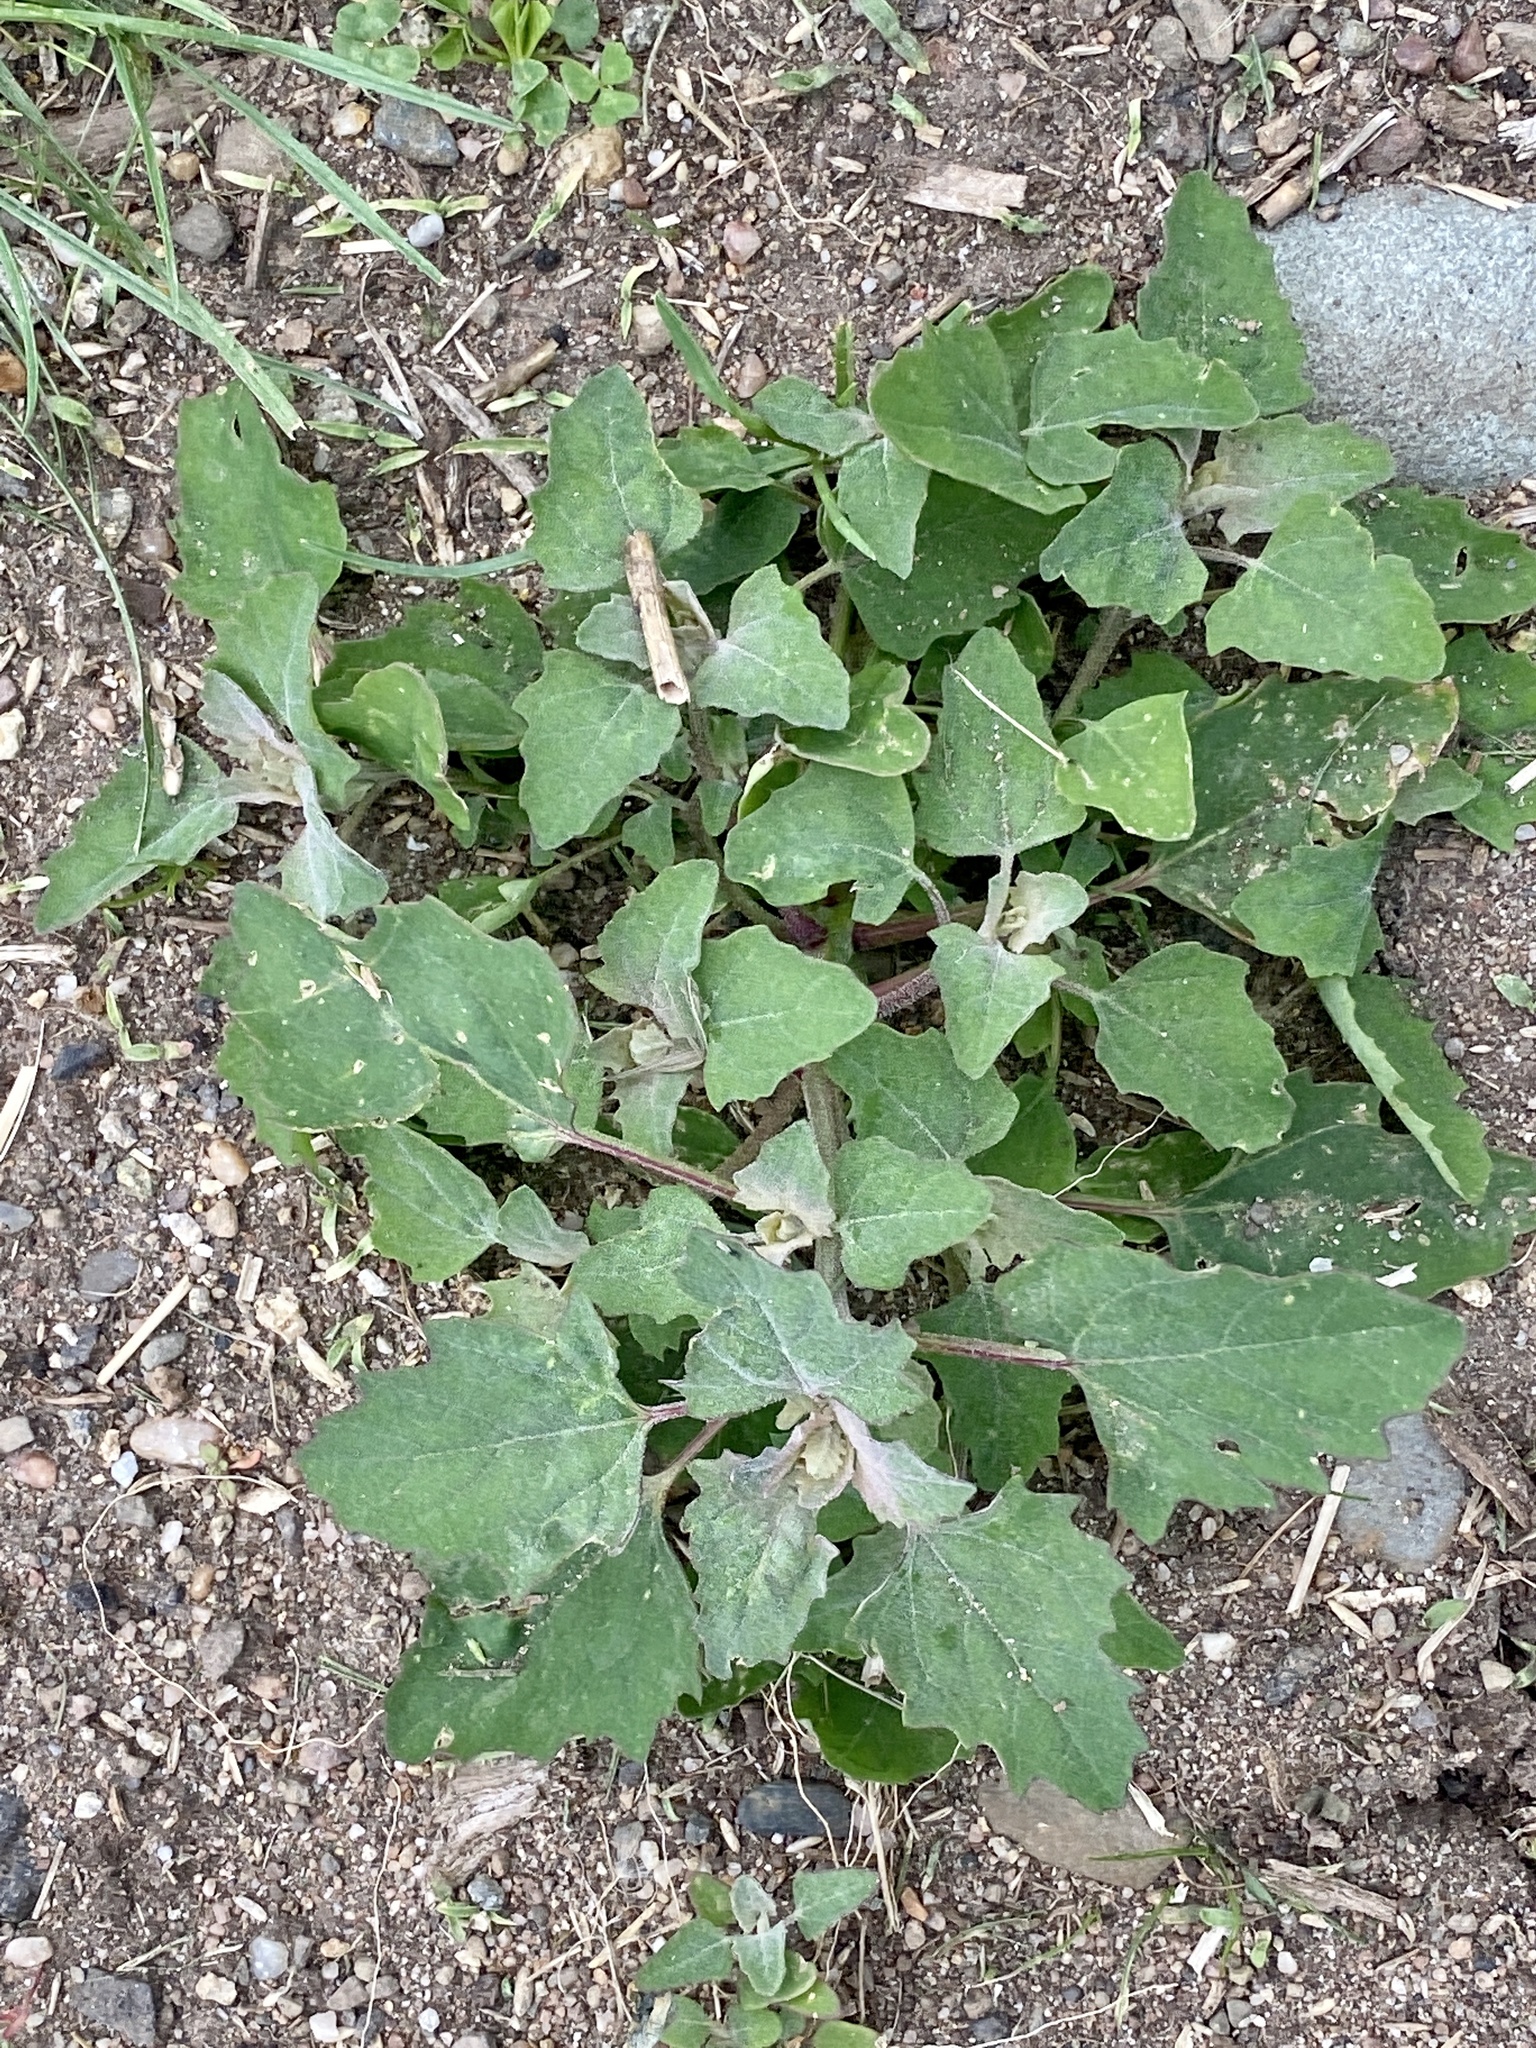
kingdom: Plantae
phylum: Tracheophyta
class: Magnoliopsida
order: Caryophyllales
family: Amaranthaceae
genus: Chenopodium
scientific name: Chenopodium album
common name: Fat-hen
